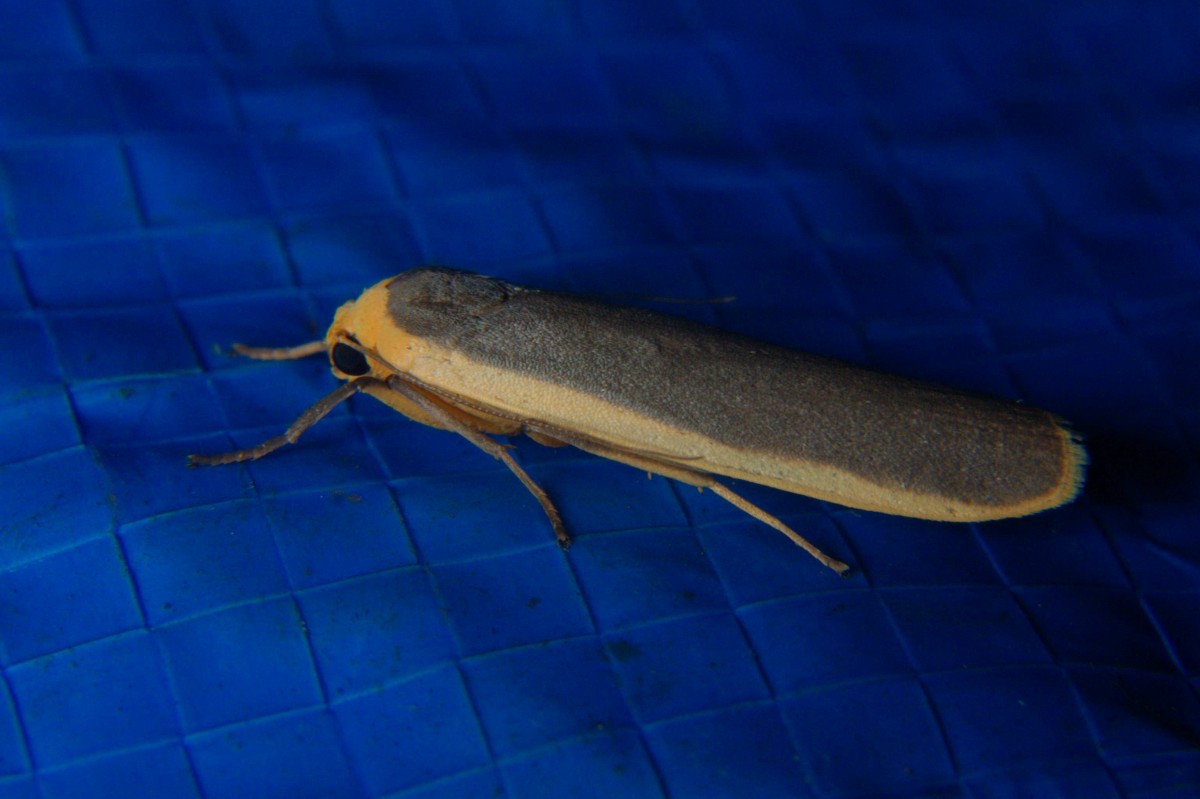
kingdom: Animalia
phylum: Arthropoda
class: Insecta
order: Lepidoptera
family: Erebidae
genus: Brunia
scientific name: Brunia antica
